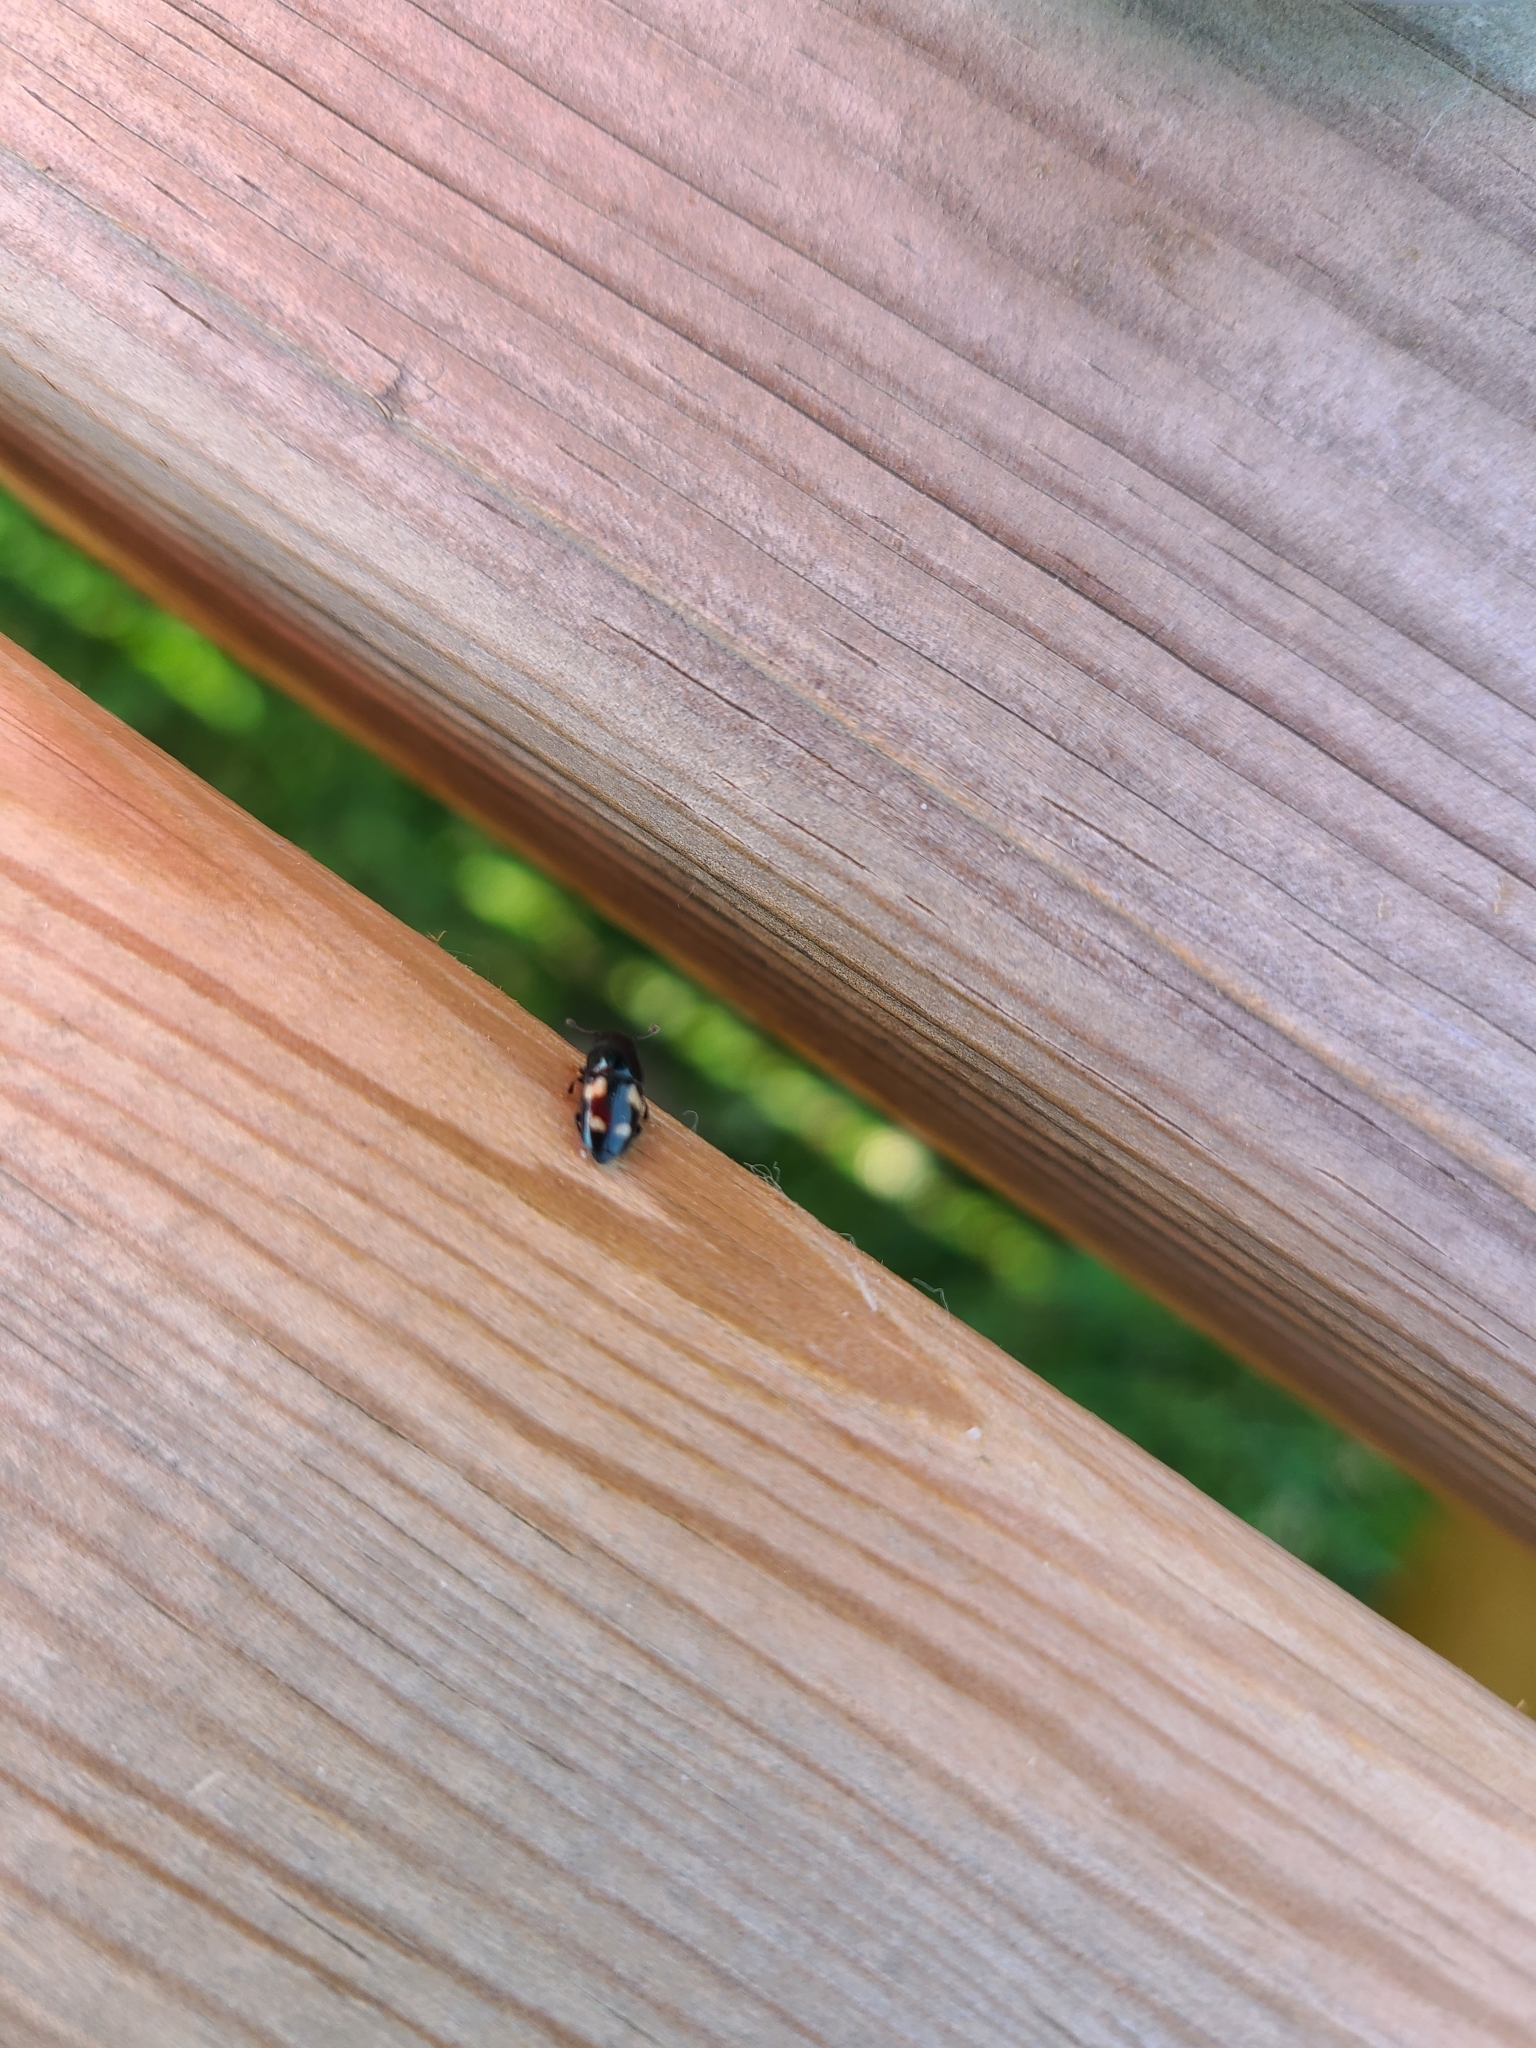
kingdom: Animalia
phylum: Arthropoda
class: Insecta
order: Coleoptera
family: Nitidulidae
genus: Glischrochilus
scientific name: Glischrochilus quadrisignatus
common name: Picnic beetle
